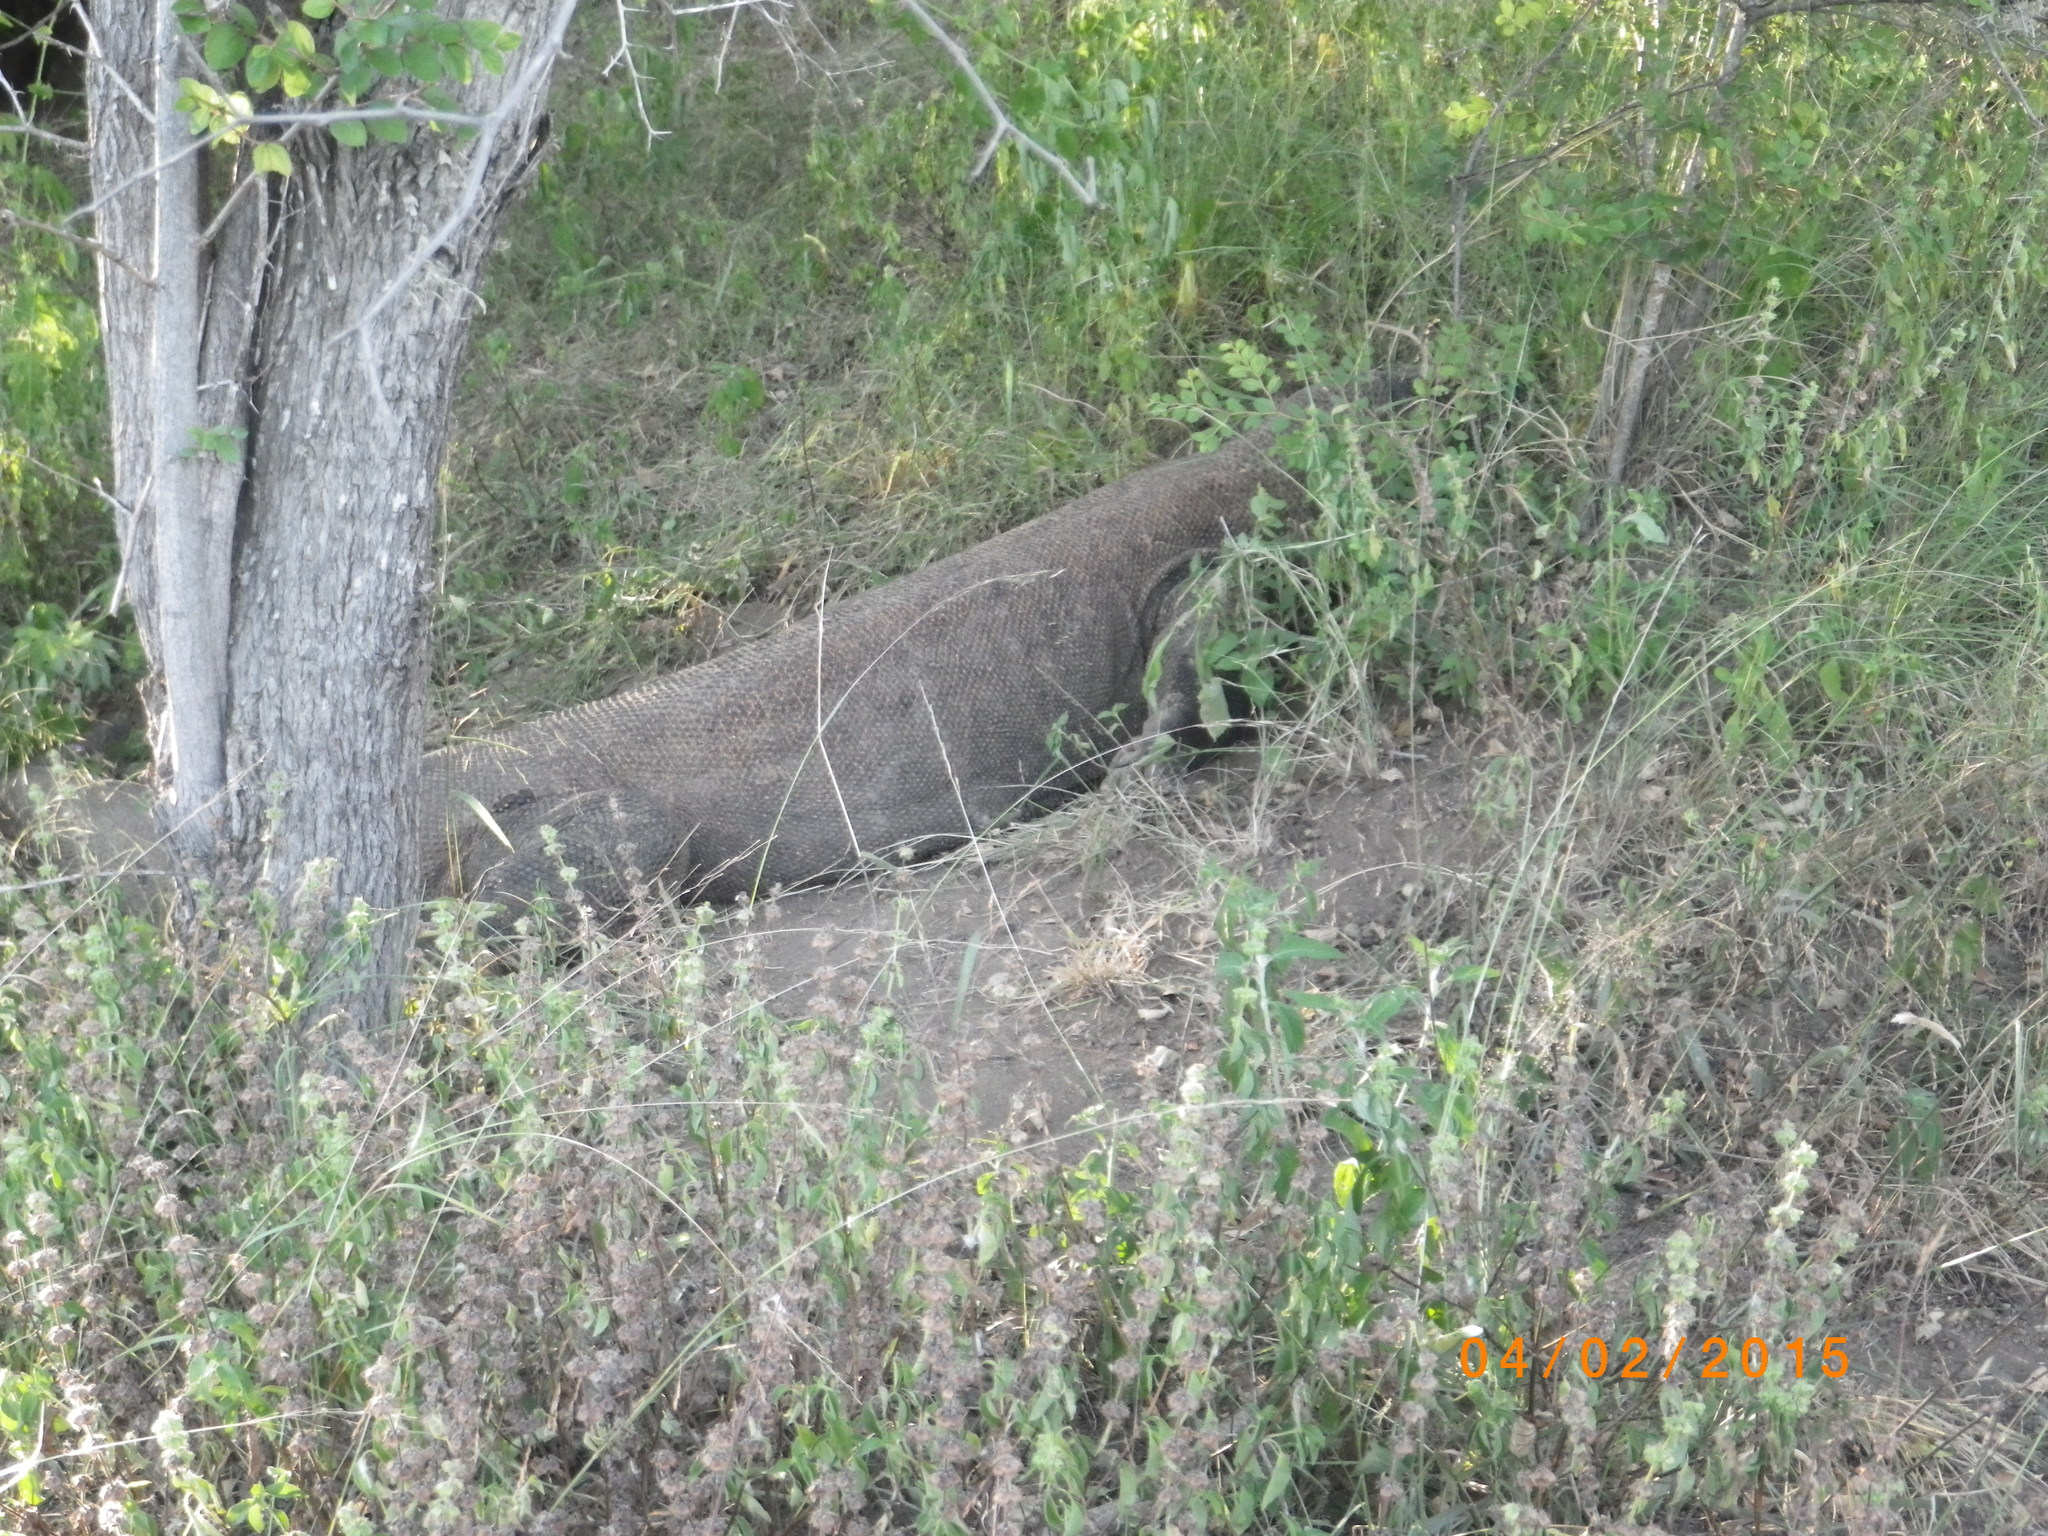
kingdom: Animalia
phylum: Chordata
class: Squamata
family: Varanidae
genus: Varanus
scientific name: Varanus komodoensis
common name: Komodo dragon
